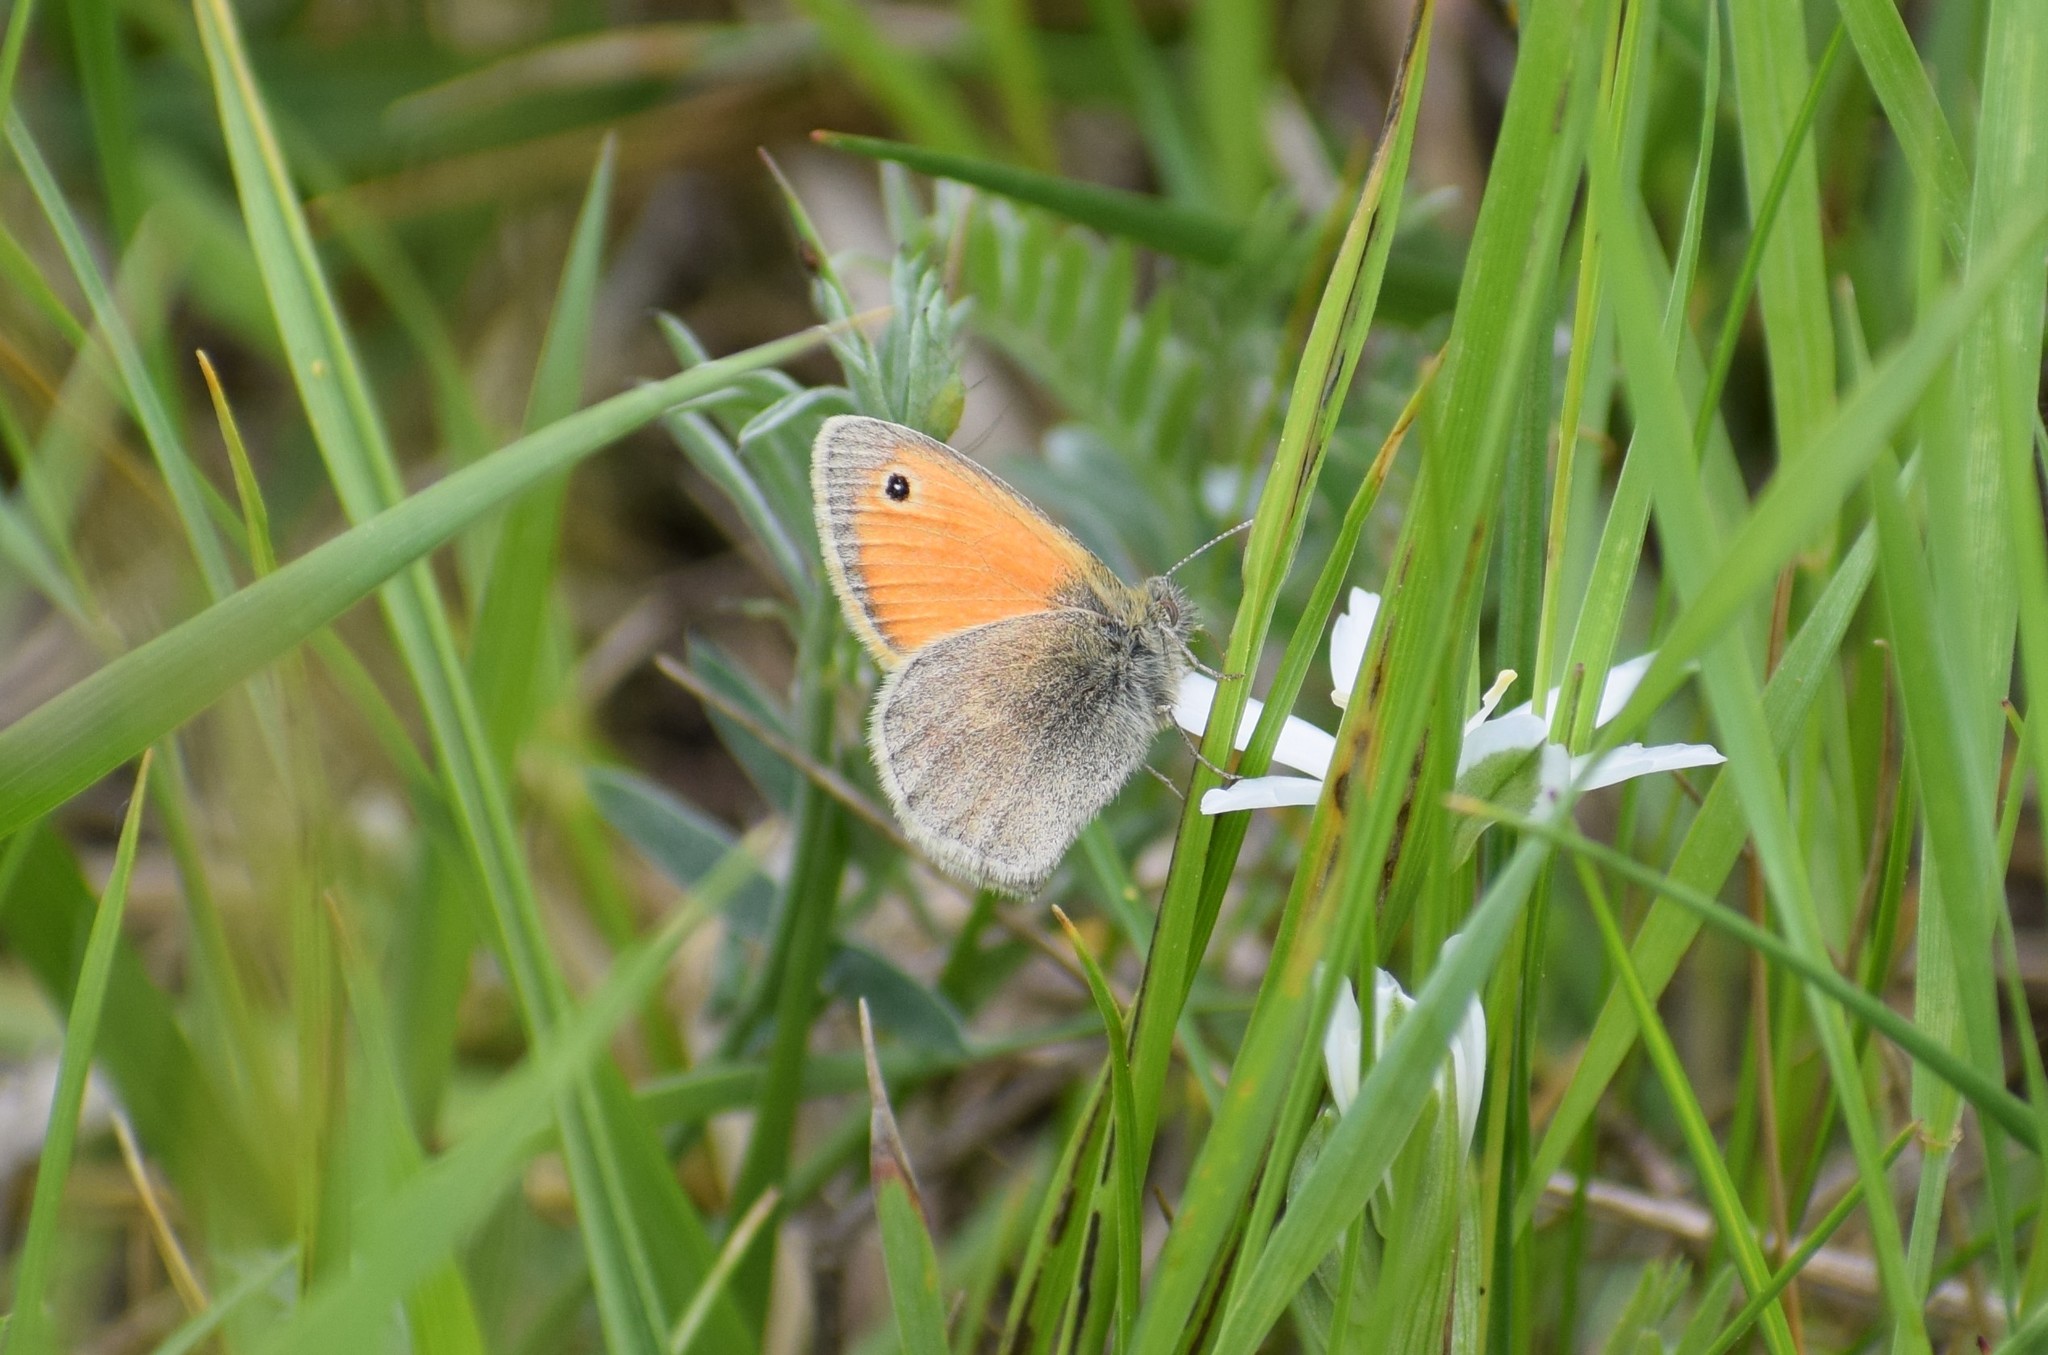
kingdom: Animalia
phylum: Arthropoda
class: Insecta
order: Lepidoptera
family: Nymphalidae
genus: Coenonympha
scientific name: Coenonympha pamphilus
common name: Small heath
